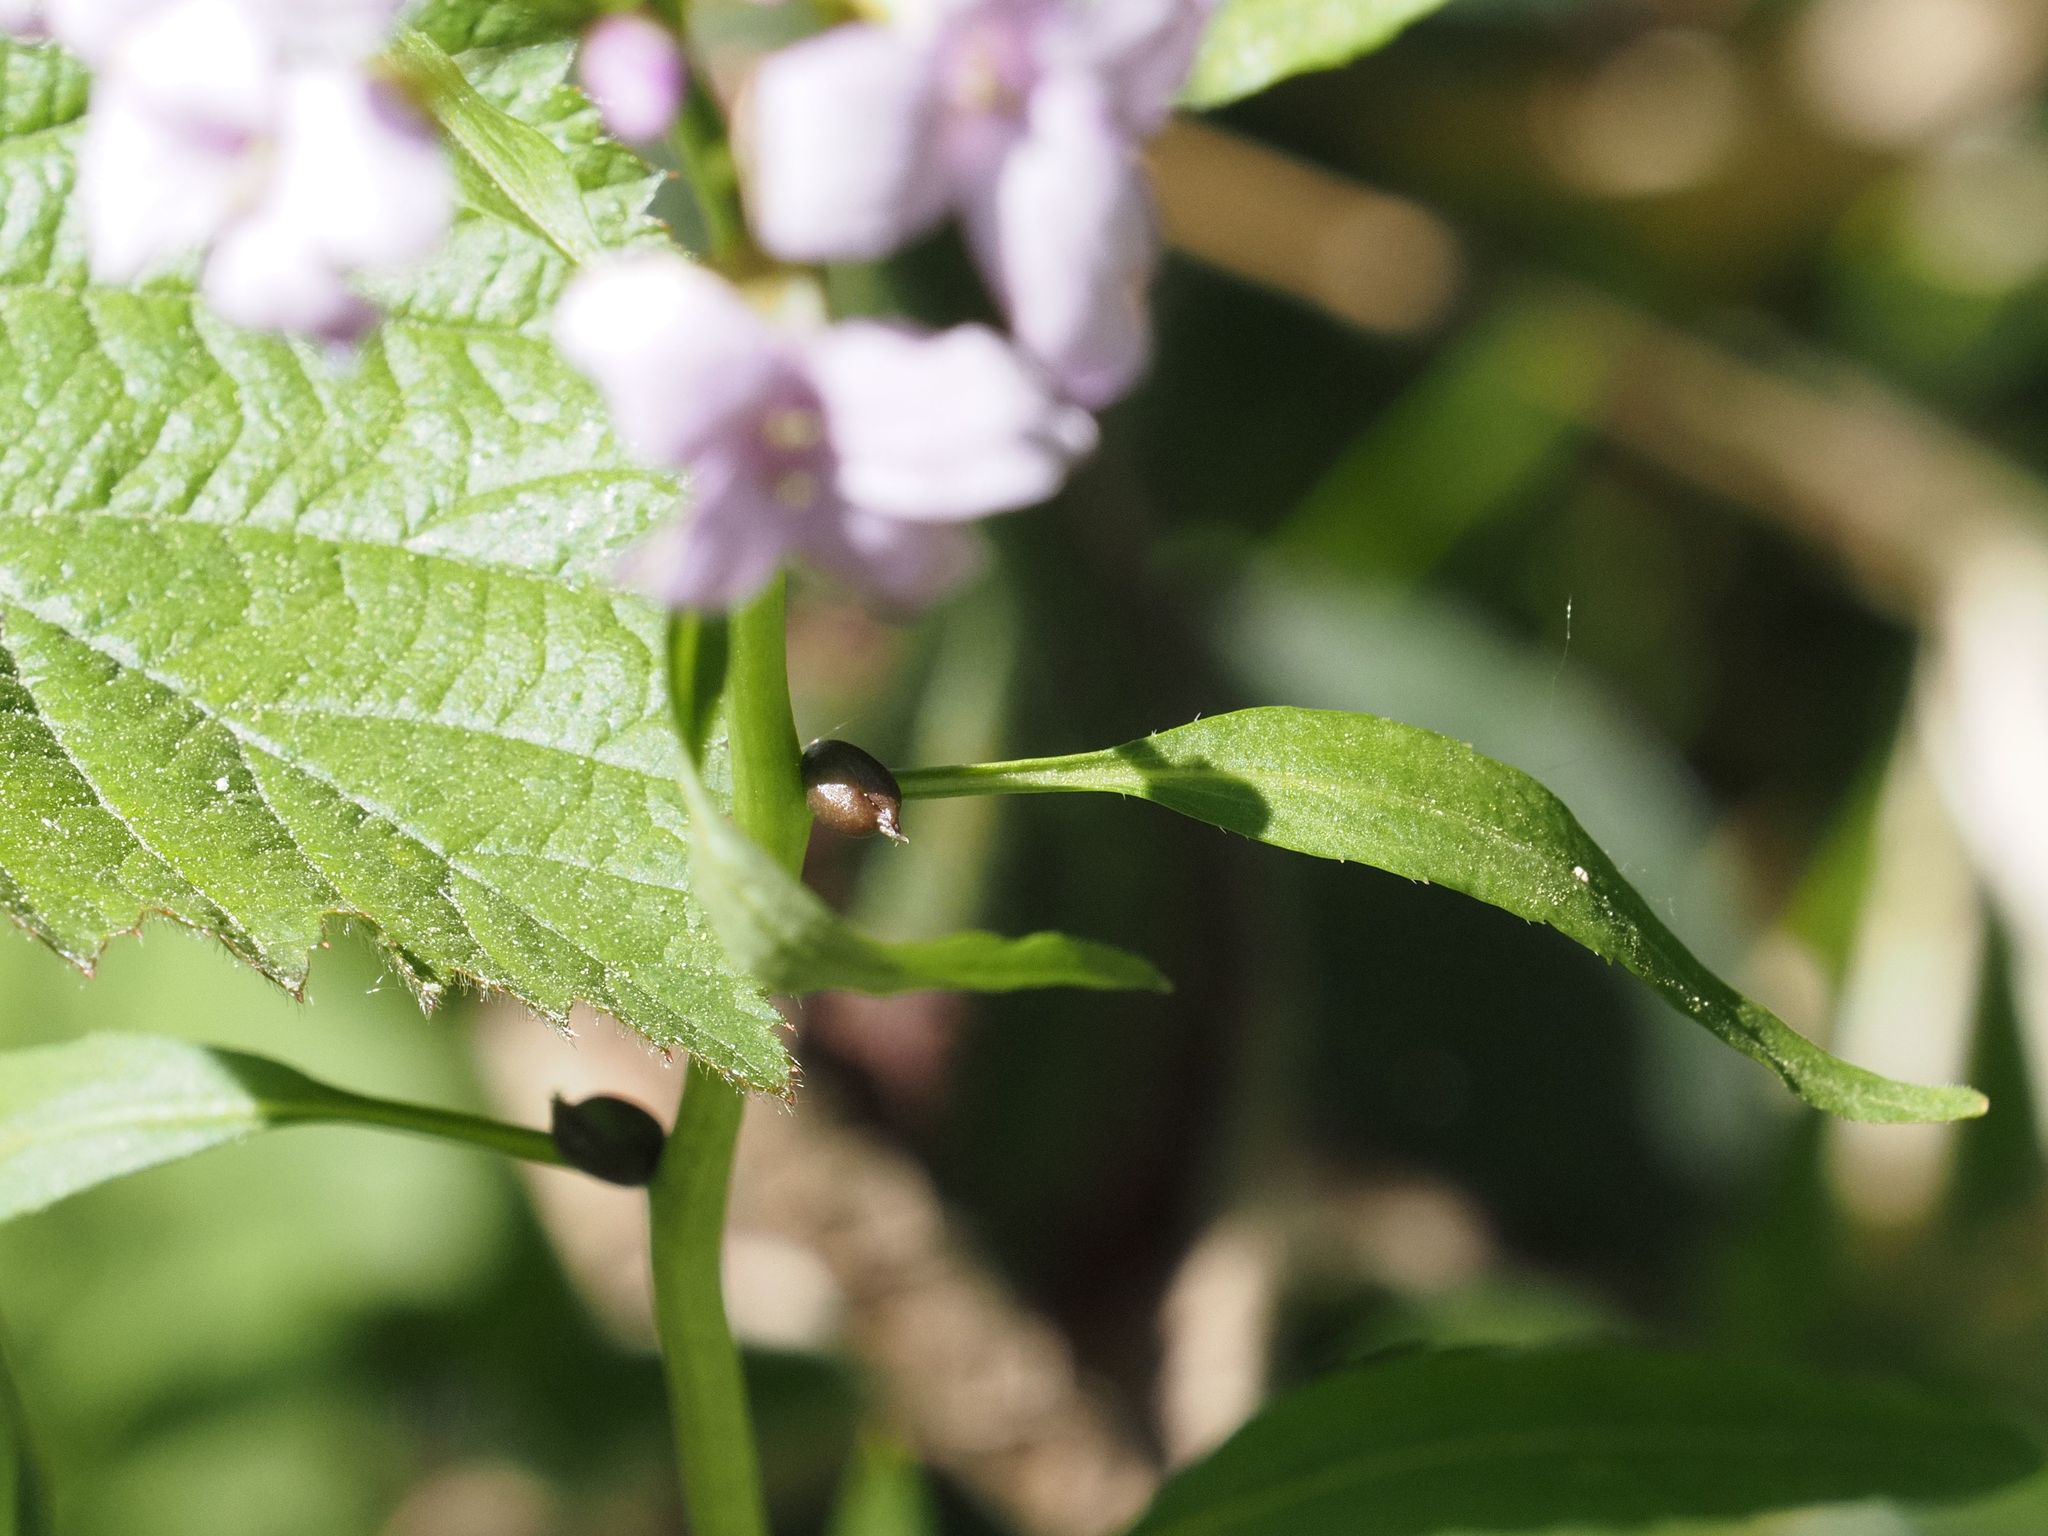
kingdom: Plantae
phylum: Tracheophyta
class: Magnoliopsida
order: Brassicales
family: Brassicaceae
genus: Cardamine
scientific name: Cardamine bulbifera
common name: Coralroot bittercress
